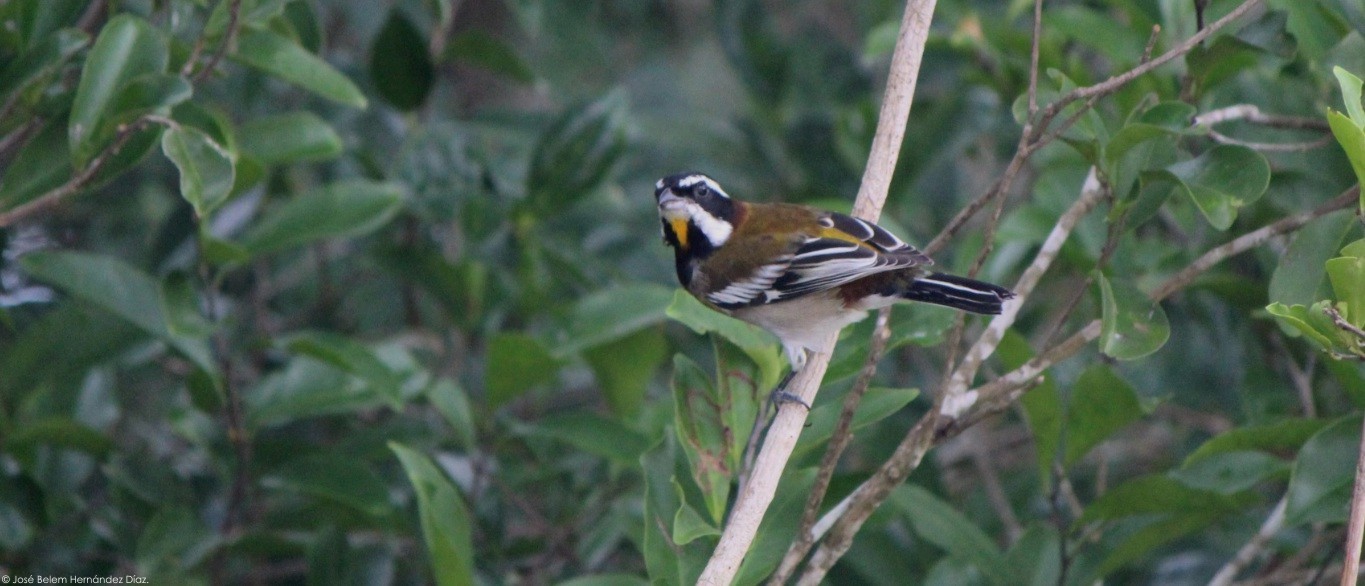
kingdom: Animalia
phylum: Chordata
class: Aves
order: Passeriformes
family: Spindalidae
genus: Spindalis
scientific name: Spindalis zena
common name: Western spindalis
